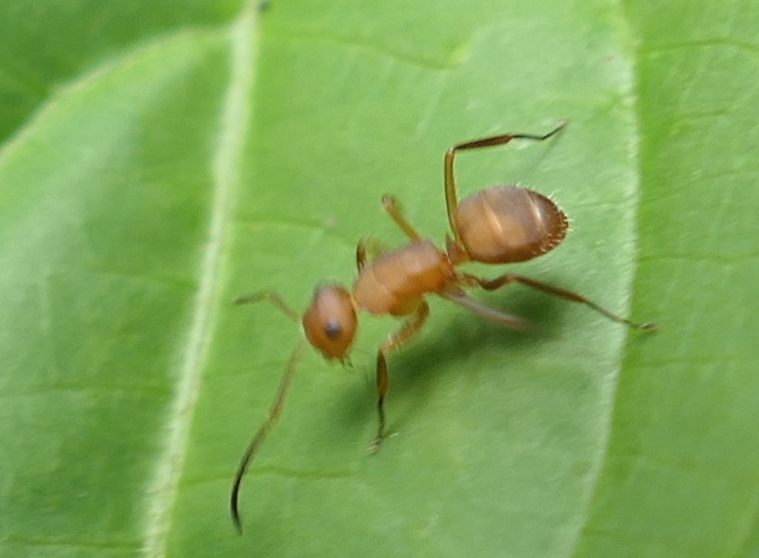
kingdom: Animalia
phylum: Arthropoda
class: Insecta
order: Hymenoptera
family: Formicidae
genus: Camponotus
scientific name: Camponotus rectangularis
